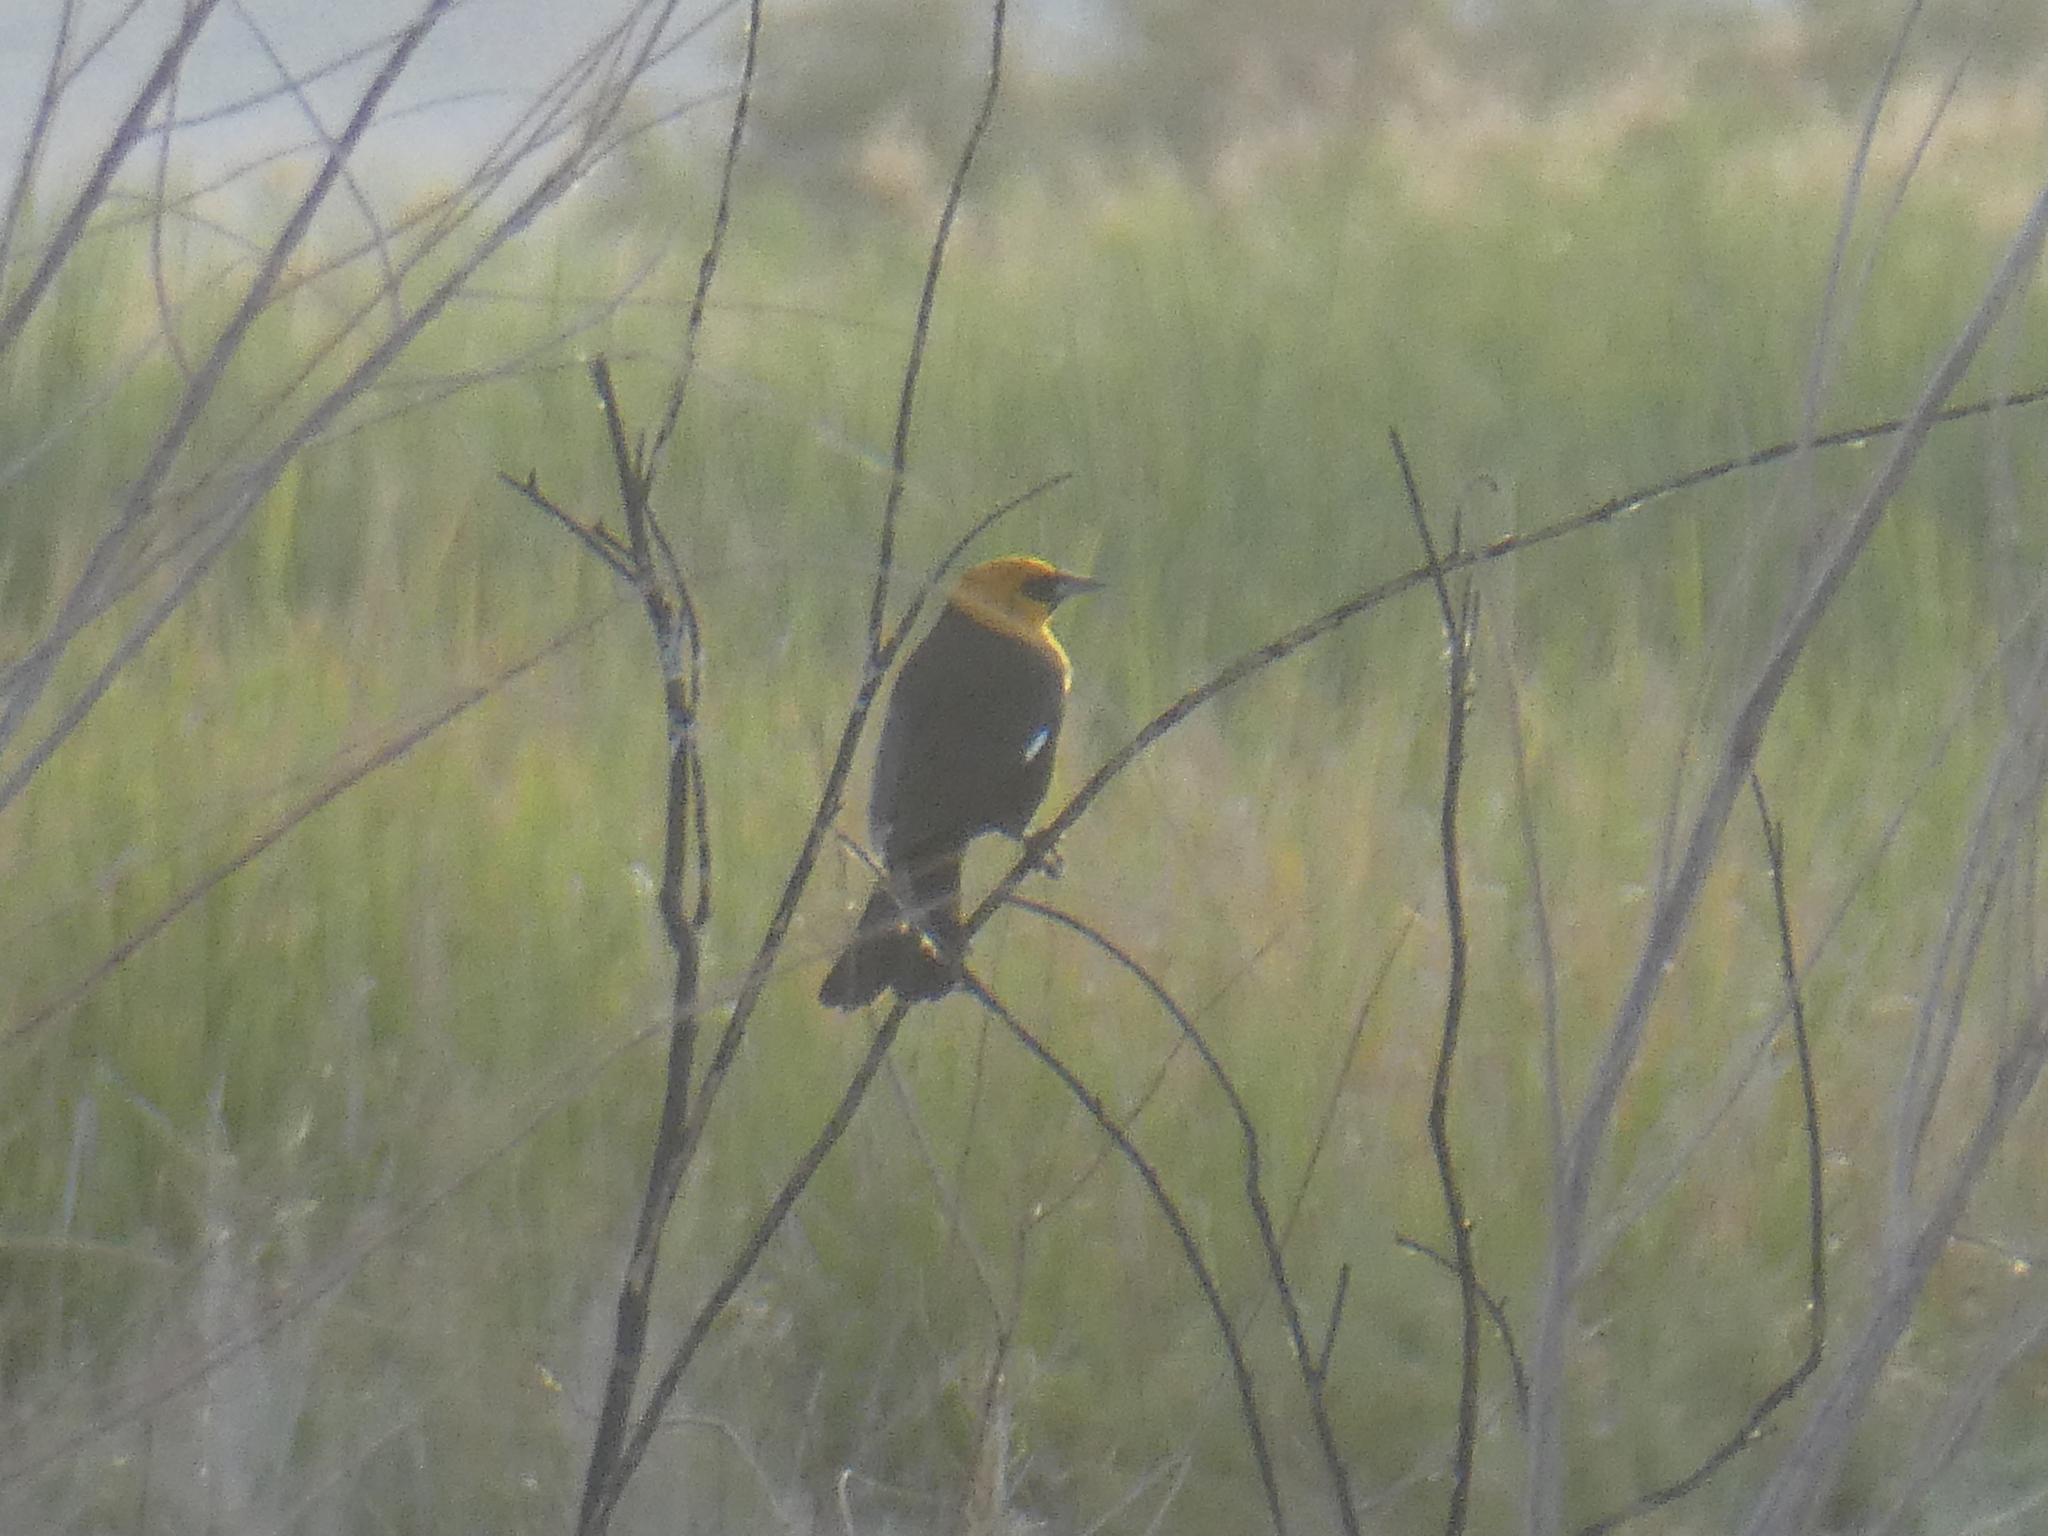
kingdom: Animalia
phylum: Chordata
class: Aves
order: Passeriformes
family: Icteridae
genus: Xanthocephalus
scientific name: Xanthocephalus xanthocephalus
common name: Yellow-headed blackbird
